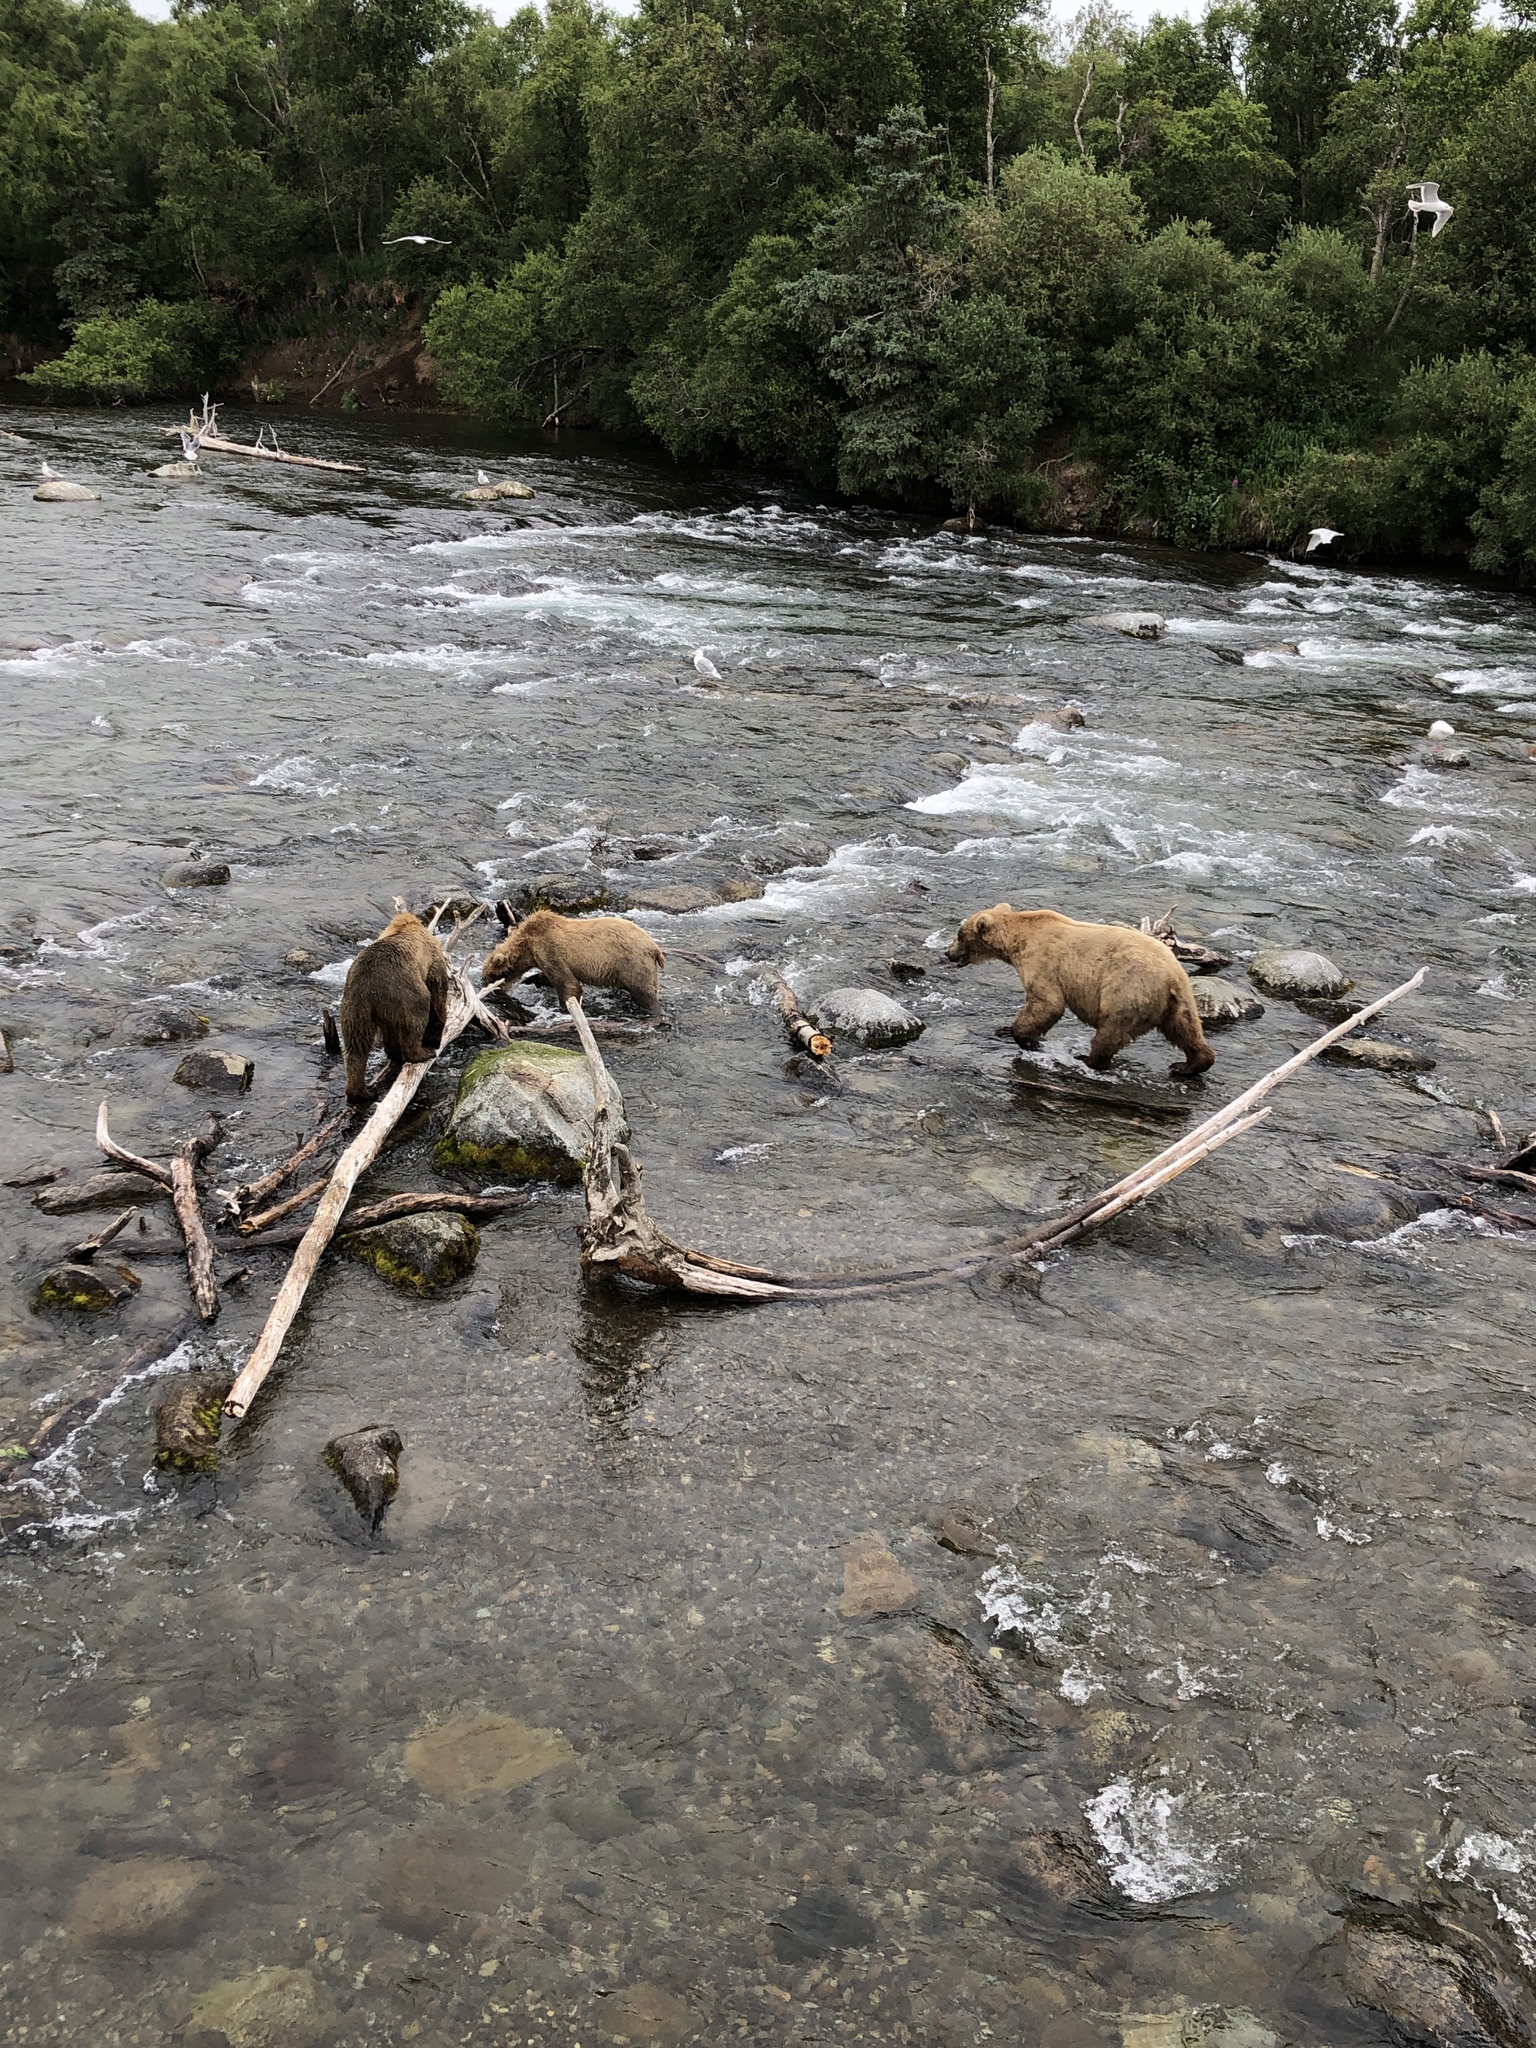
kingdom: Animalia
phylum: Chordata
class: Mammalia
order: Carnivora
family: Ursidae
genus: Ursus
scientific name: Ursus arctos
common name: Brown bear
